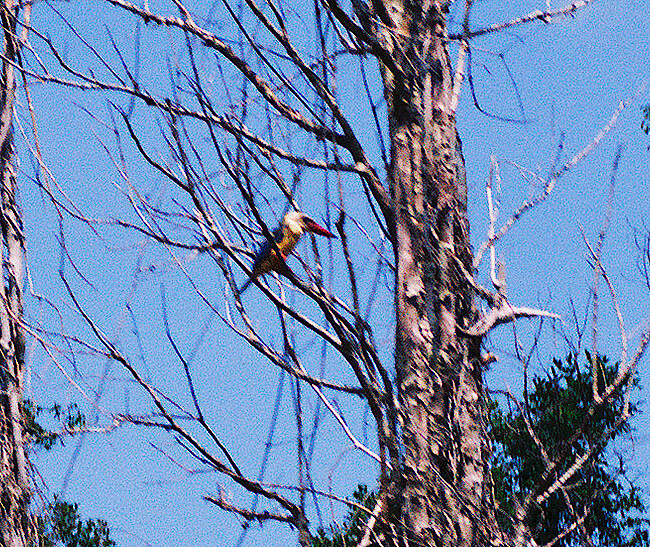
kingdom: Animalia
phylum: Chordata
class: Aves
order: Coraciiformes
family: Alcedinidae
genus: Pelargopsis
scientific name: Pelargopsis capensis
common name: Stork-billed kingfisher
